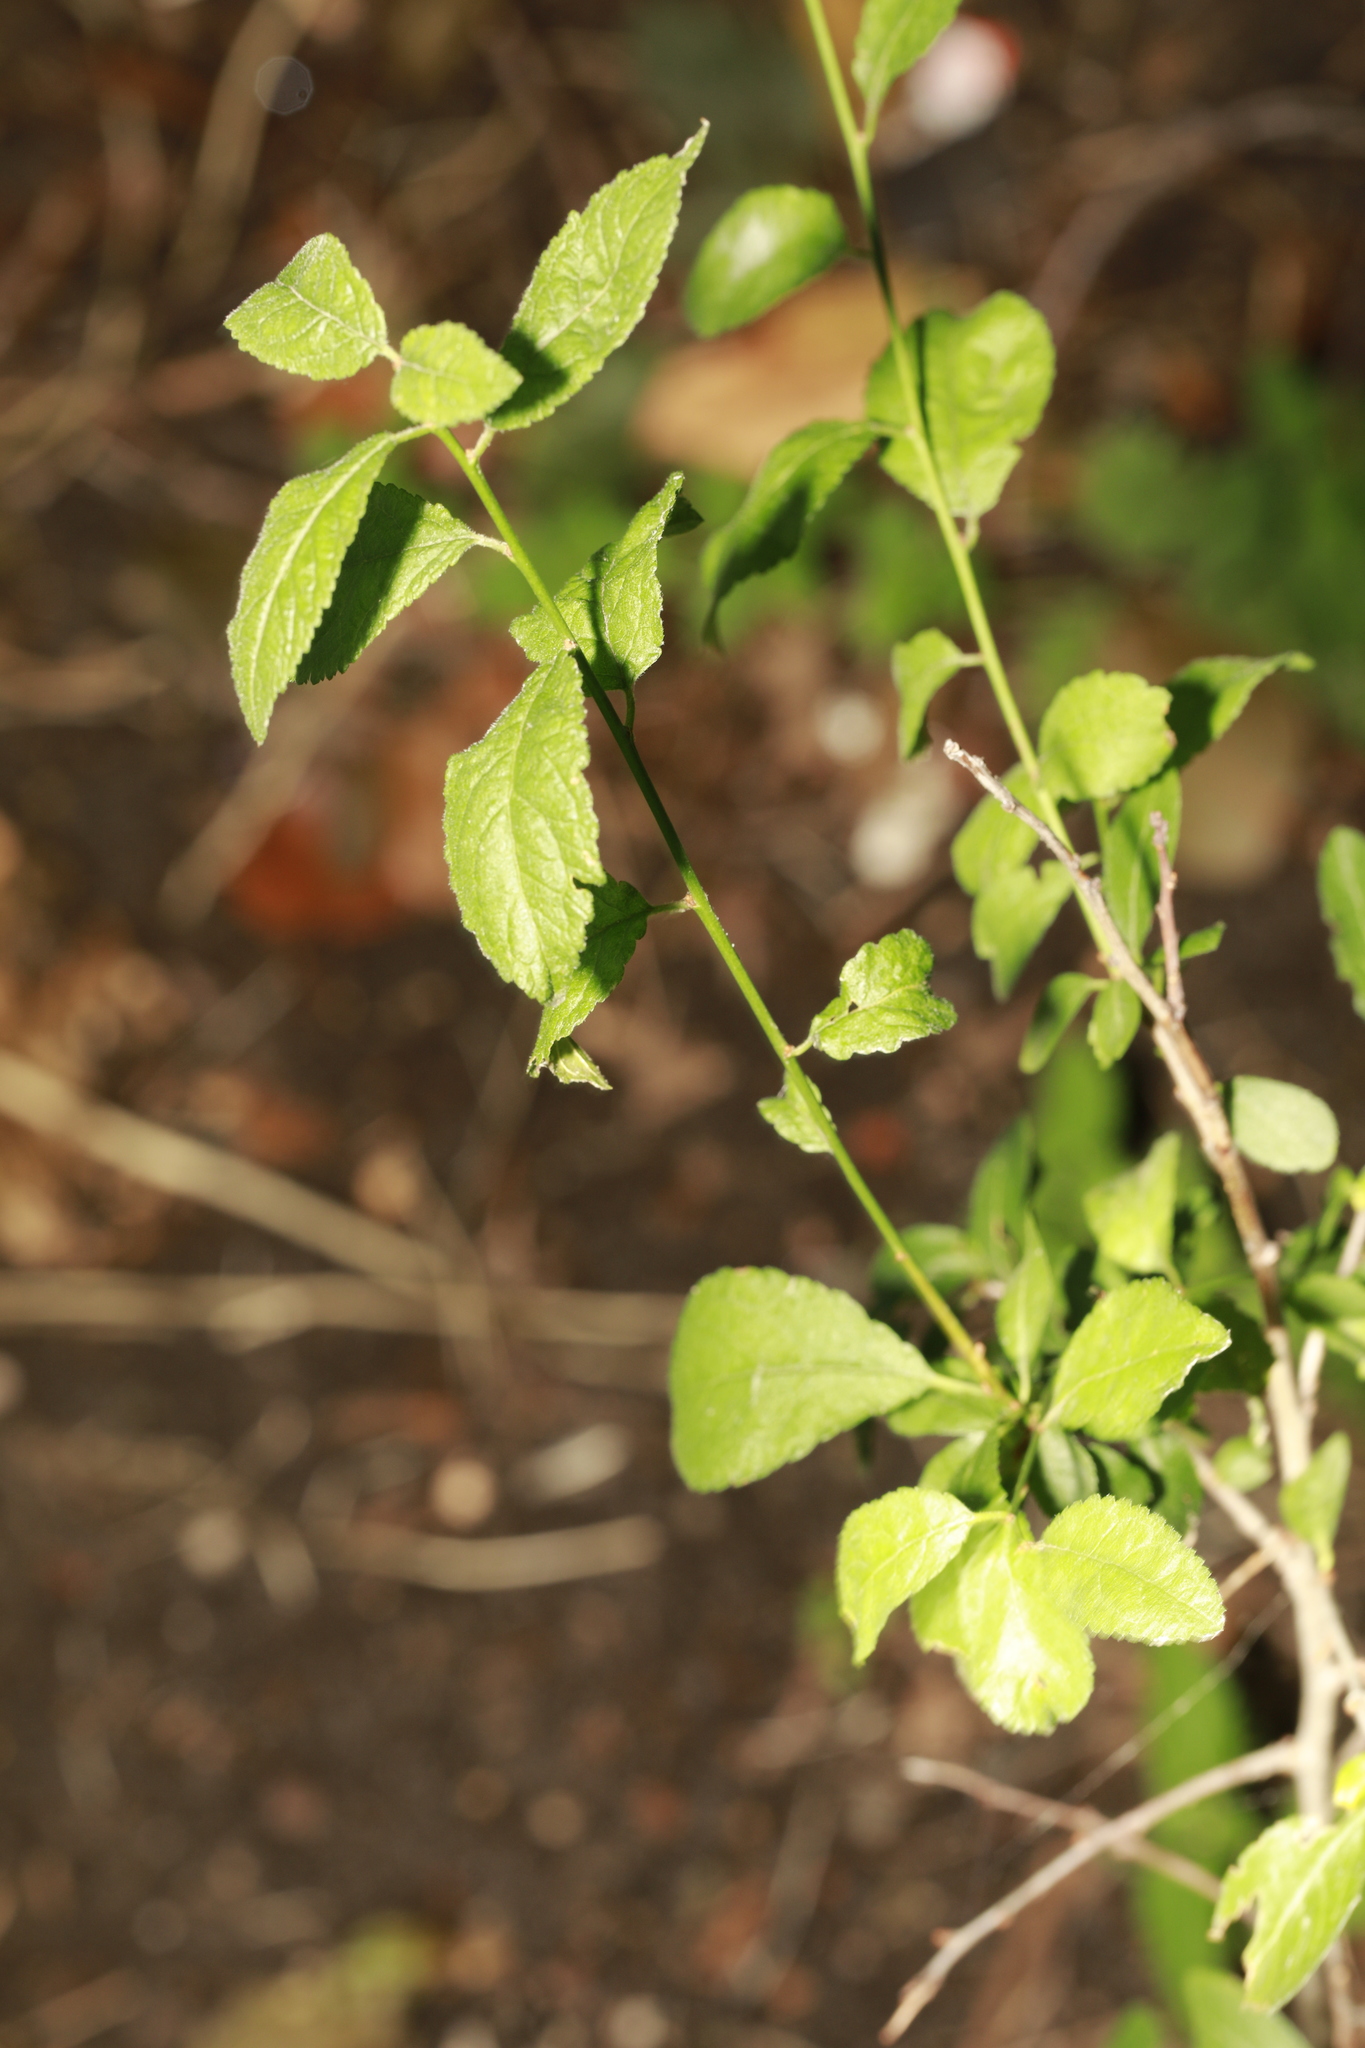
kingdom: Plantae
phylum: Tracheophyta
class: Magnoliopsida
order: Rosales
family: Rosaceae
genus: Prunus
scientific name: Prunus spinosa
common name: Blackthorn
